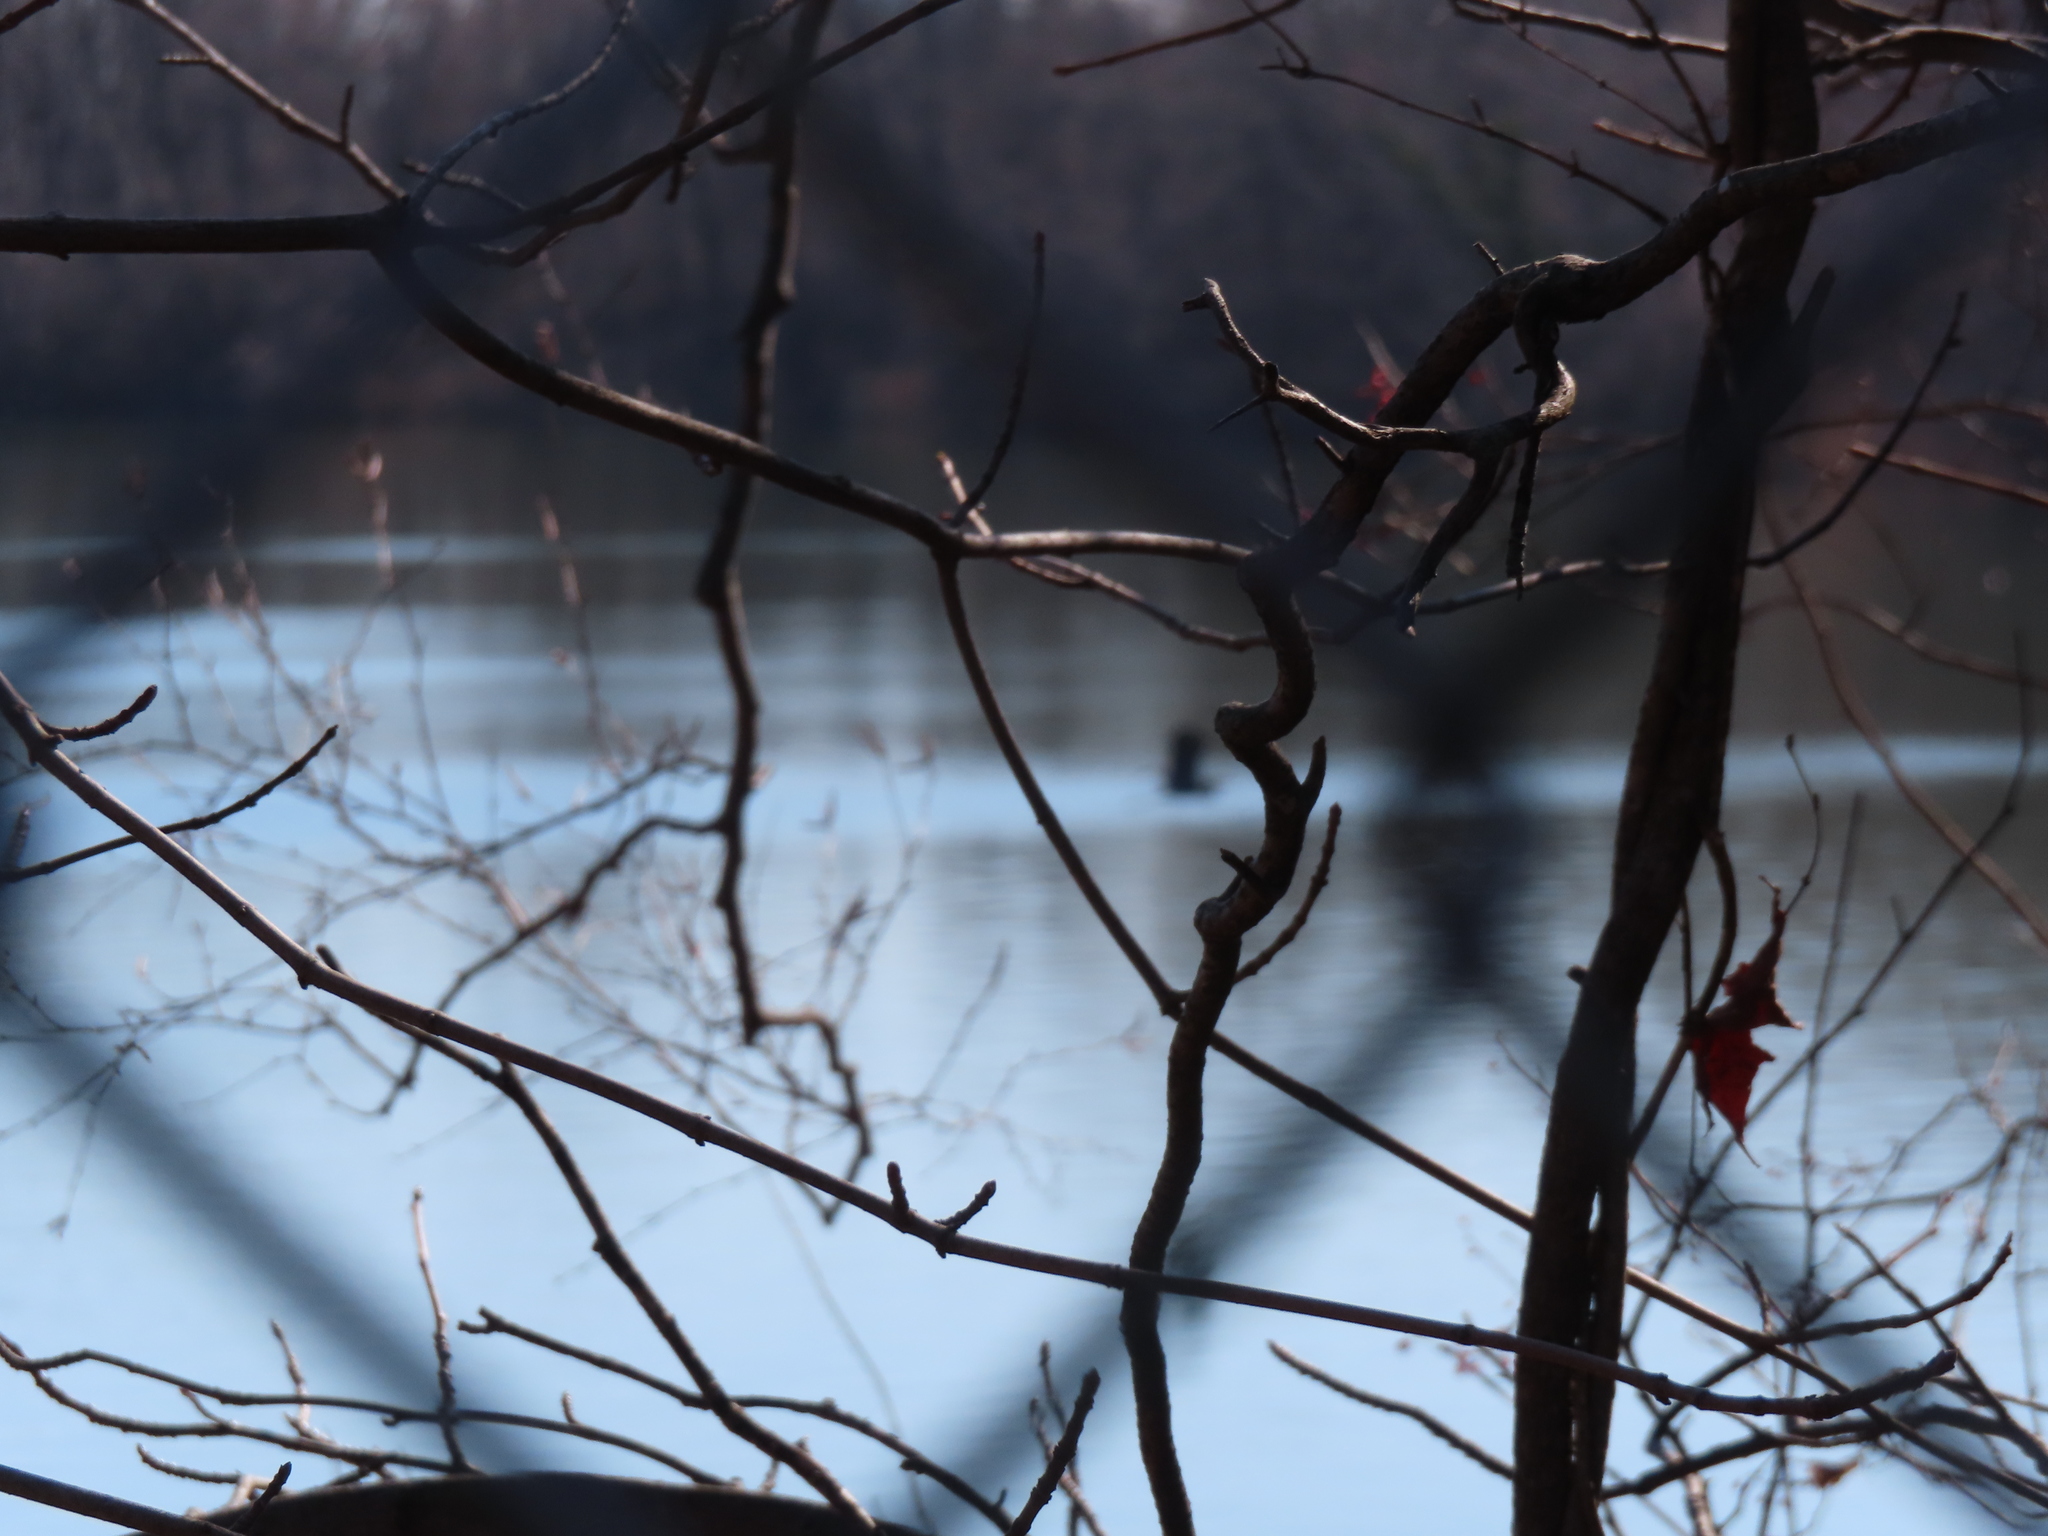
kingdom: Animalia
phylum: Chordata
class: Aves
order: Pelecaniformes
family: Ardeidae
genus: Ardea
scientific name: Ardea herodias
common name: Great blue heron
